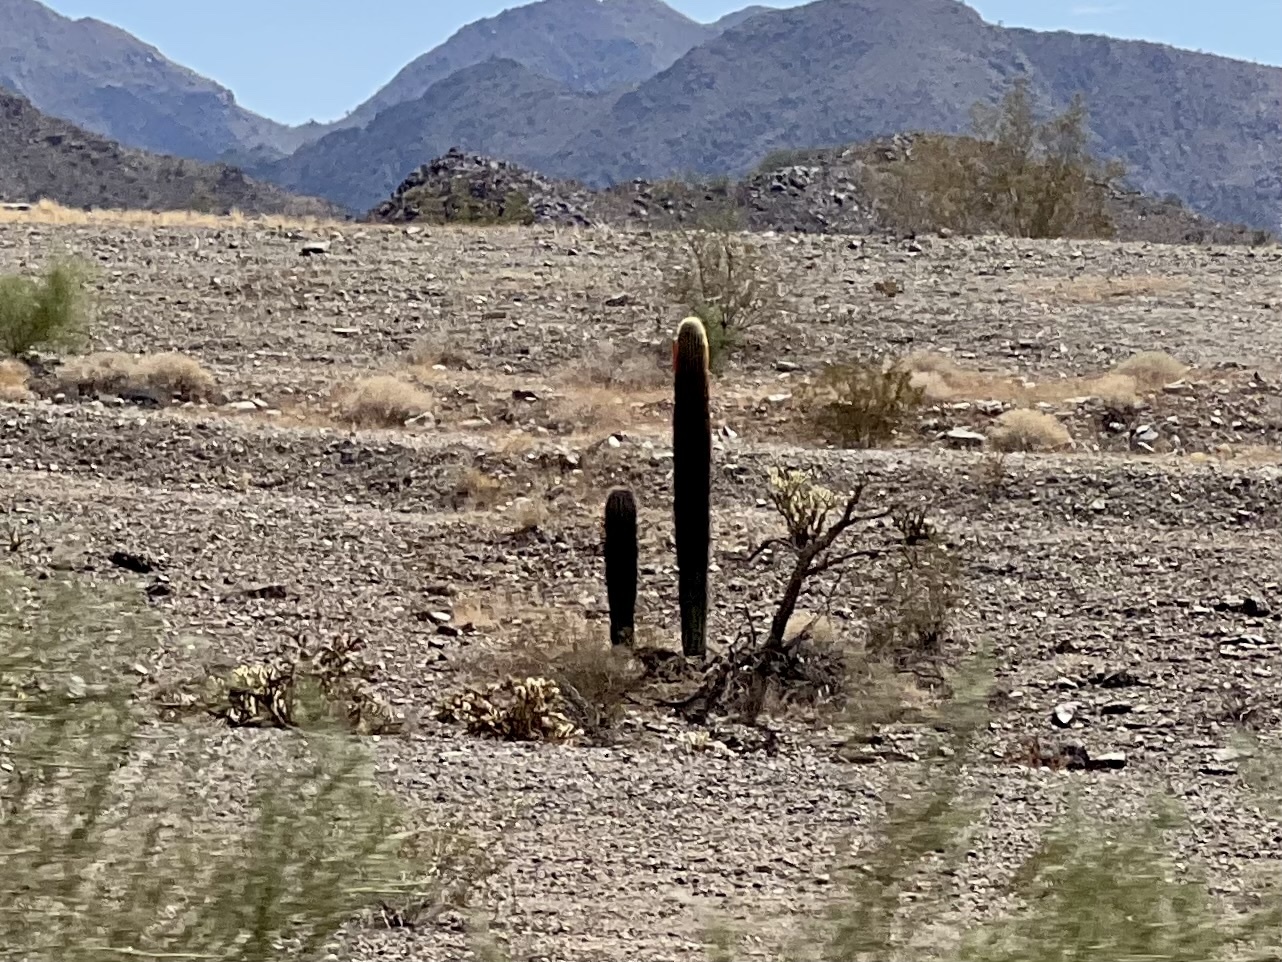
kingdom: Plantae
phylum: Tracheophyta
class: Magnoliopsida
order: Caryophyllales
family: Cactaceae
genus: Carnegiea
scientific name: Carnegiea gigantea
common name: Saguaro
